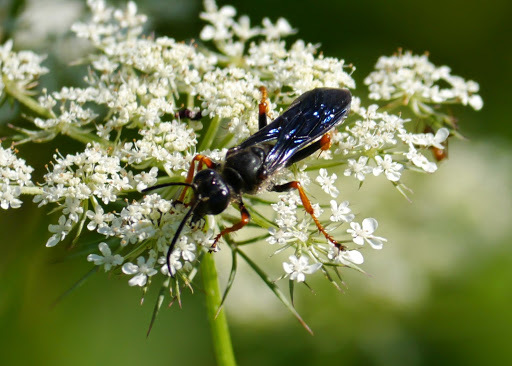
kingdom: Animalia
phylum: Arthropoda
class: Insecta
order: Hymenoptera
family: Sphecidae
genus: Sphex
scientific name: Sphex nudus
